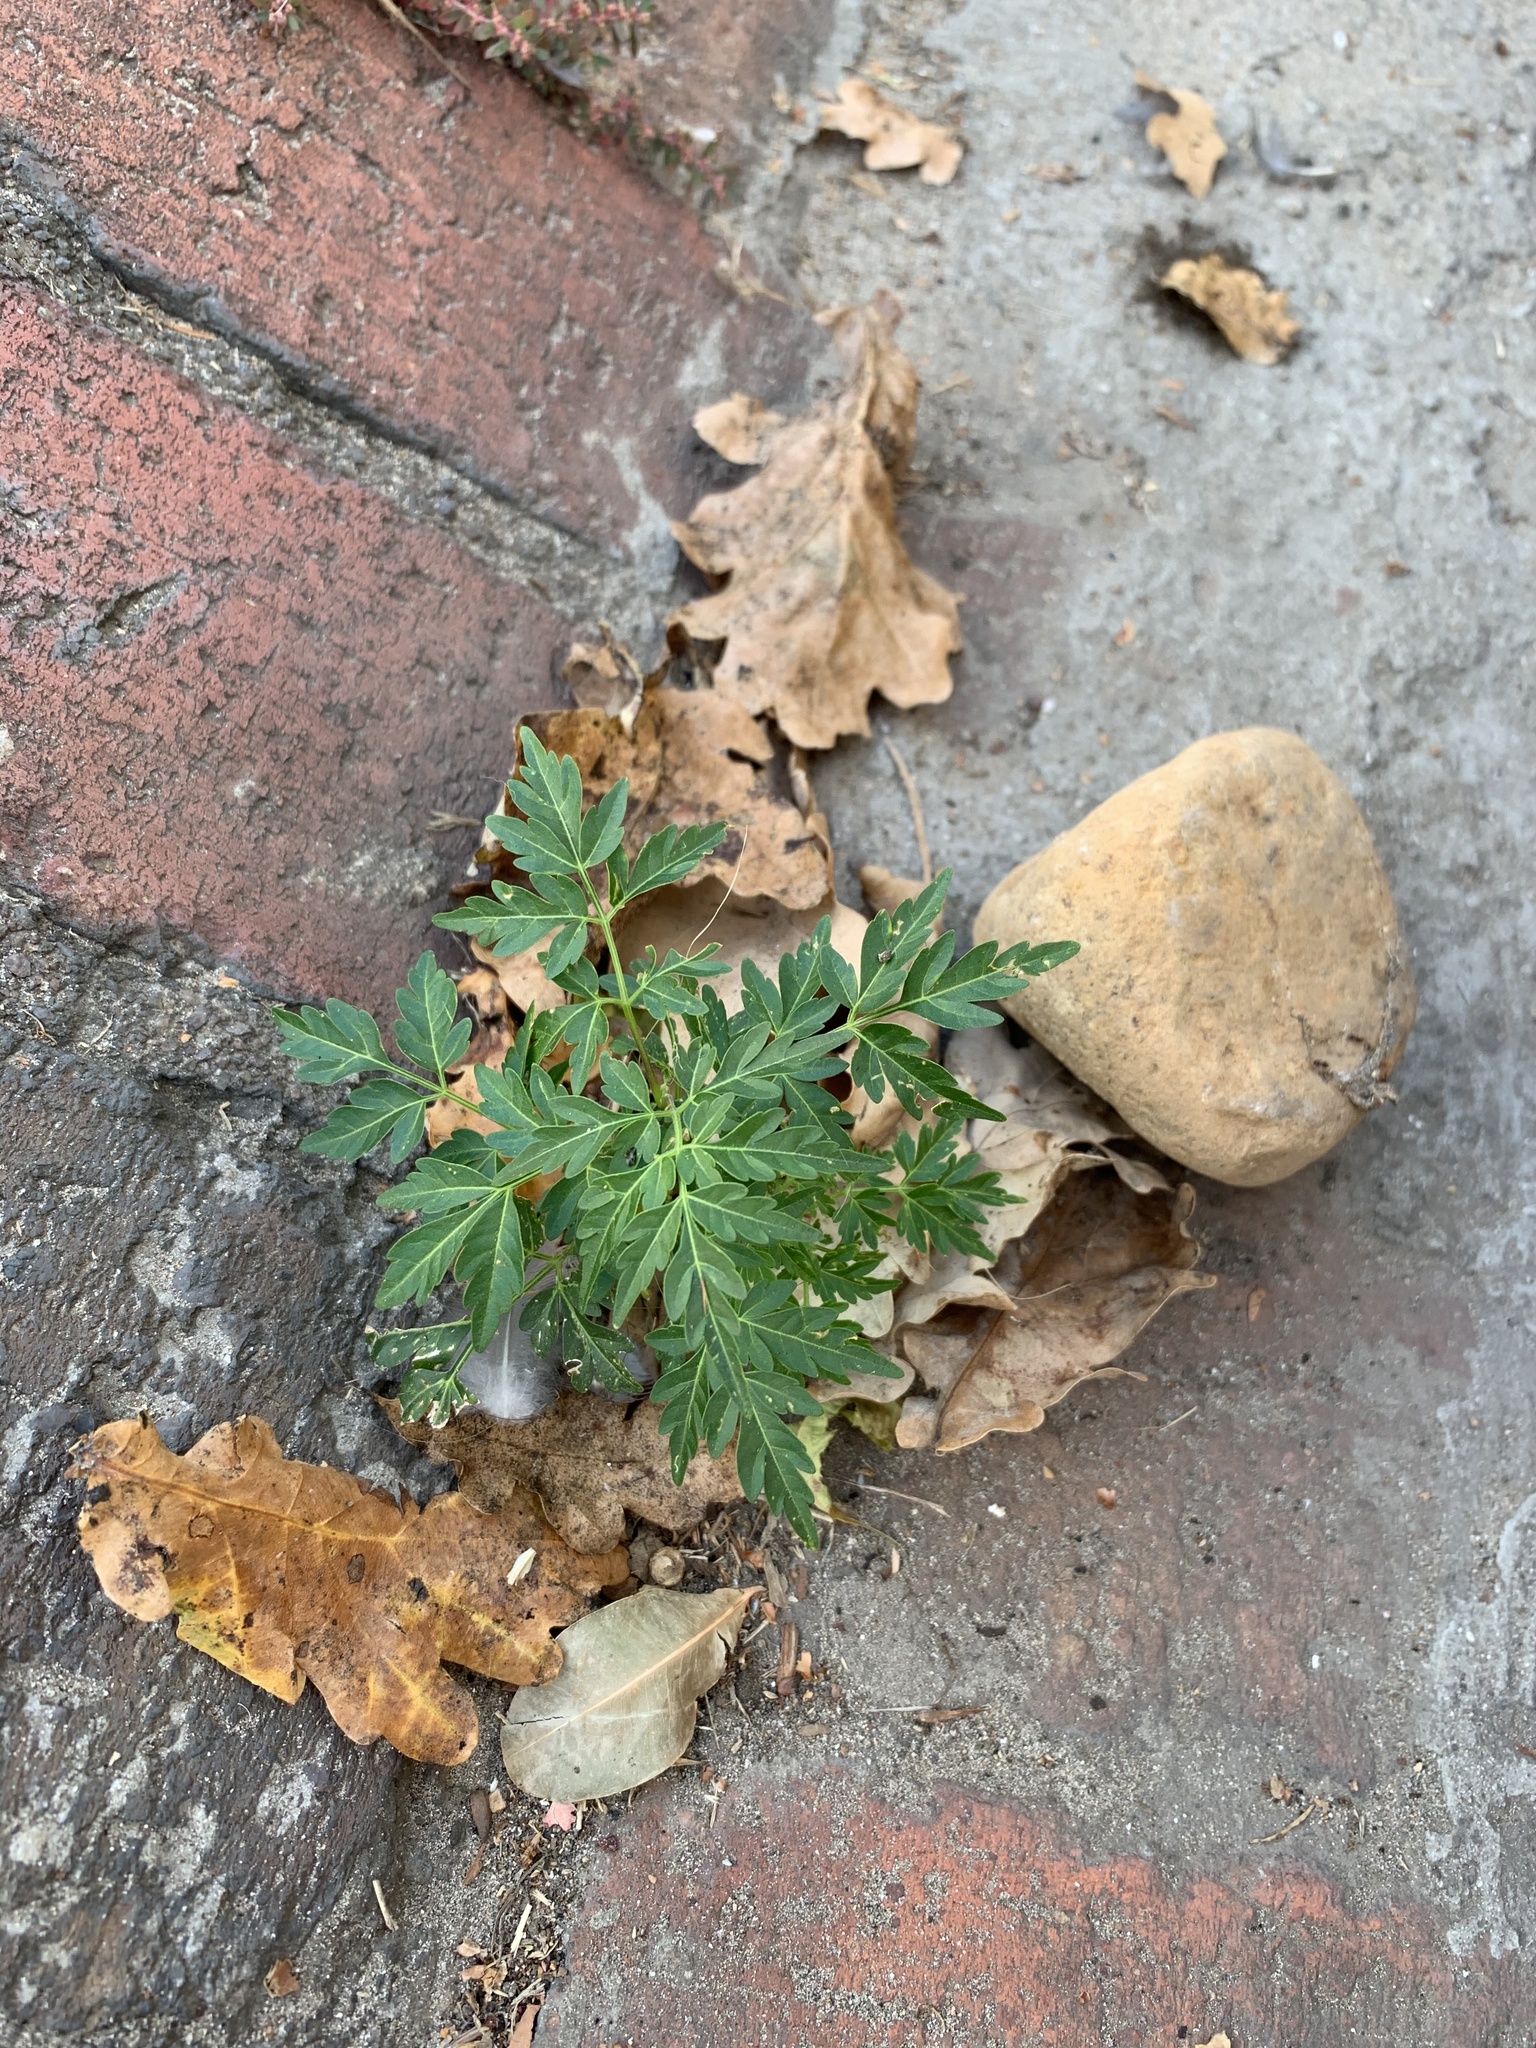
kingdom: Plantae
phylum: Tracheophyta
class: Magnoliopsida
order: Sapindales
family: Meliaceae
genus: Melia
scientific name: Melia azedarach
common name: Chinaberrytree
